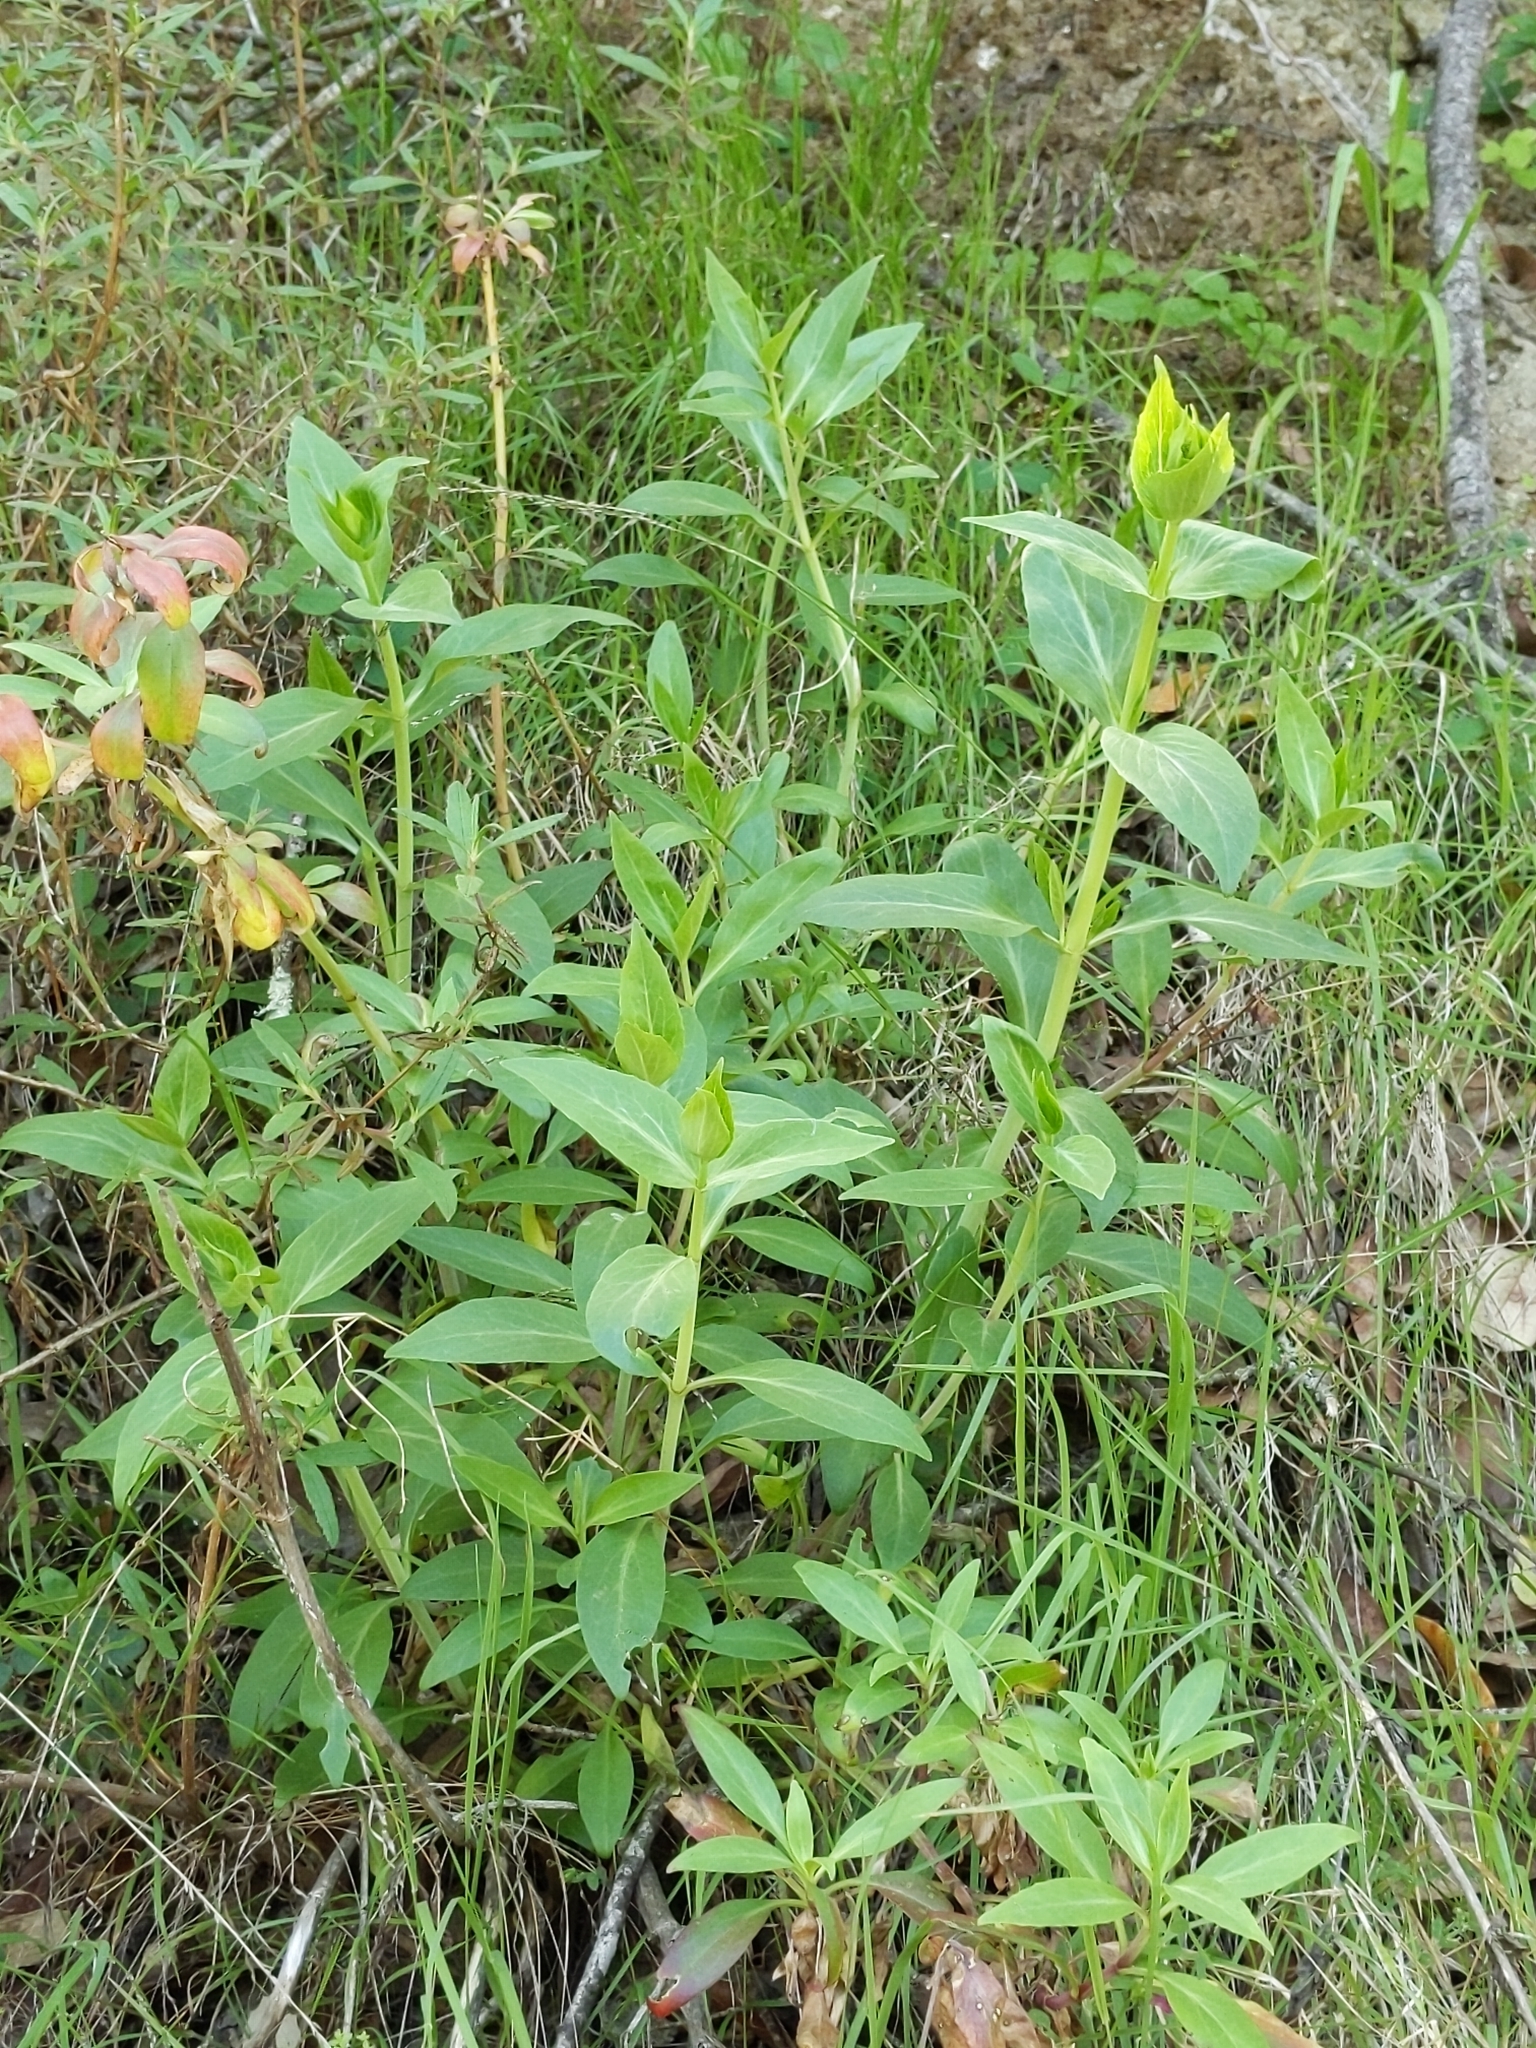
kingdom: Plantae
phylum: Tracheophyta
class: Magnoliopsida
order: Dipsacales
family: Caprifoliaceae
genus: Centranthus
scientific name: Centranthus ruber
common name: Red valerian
